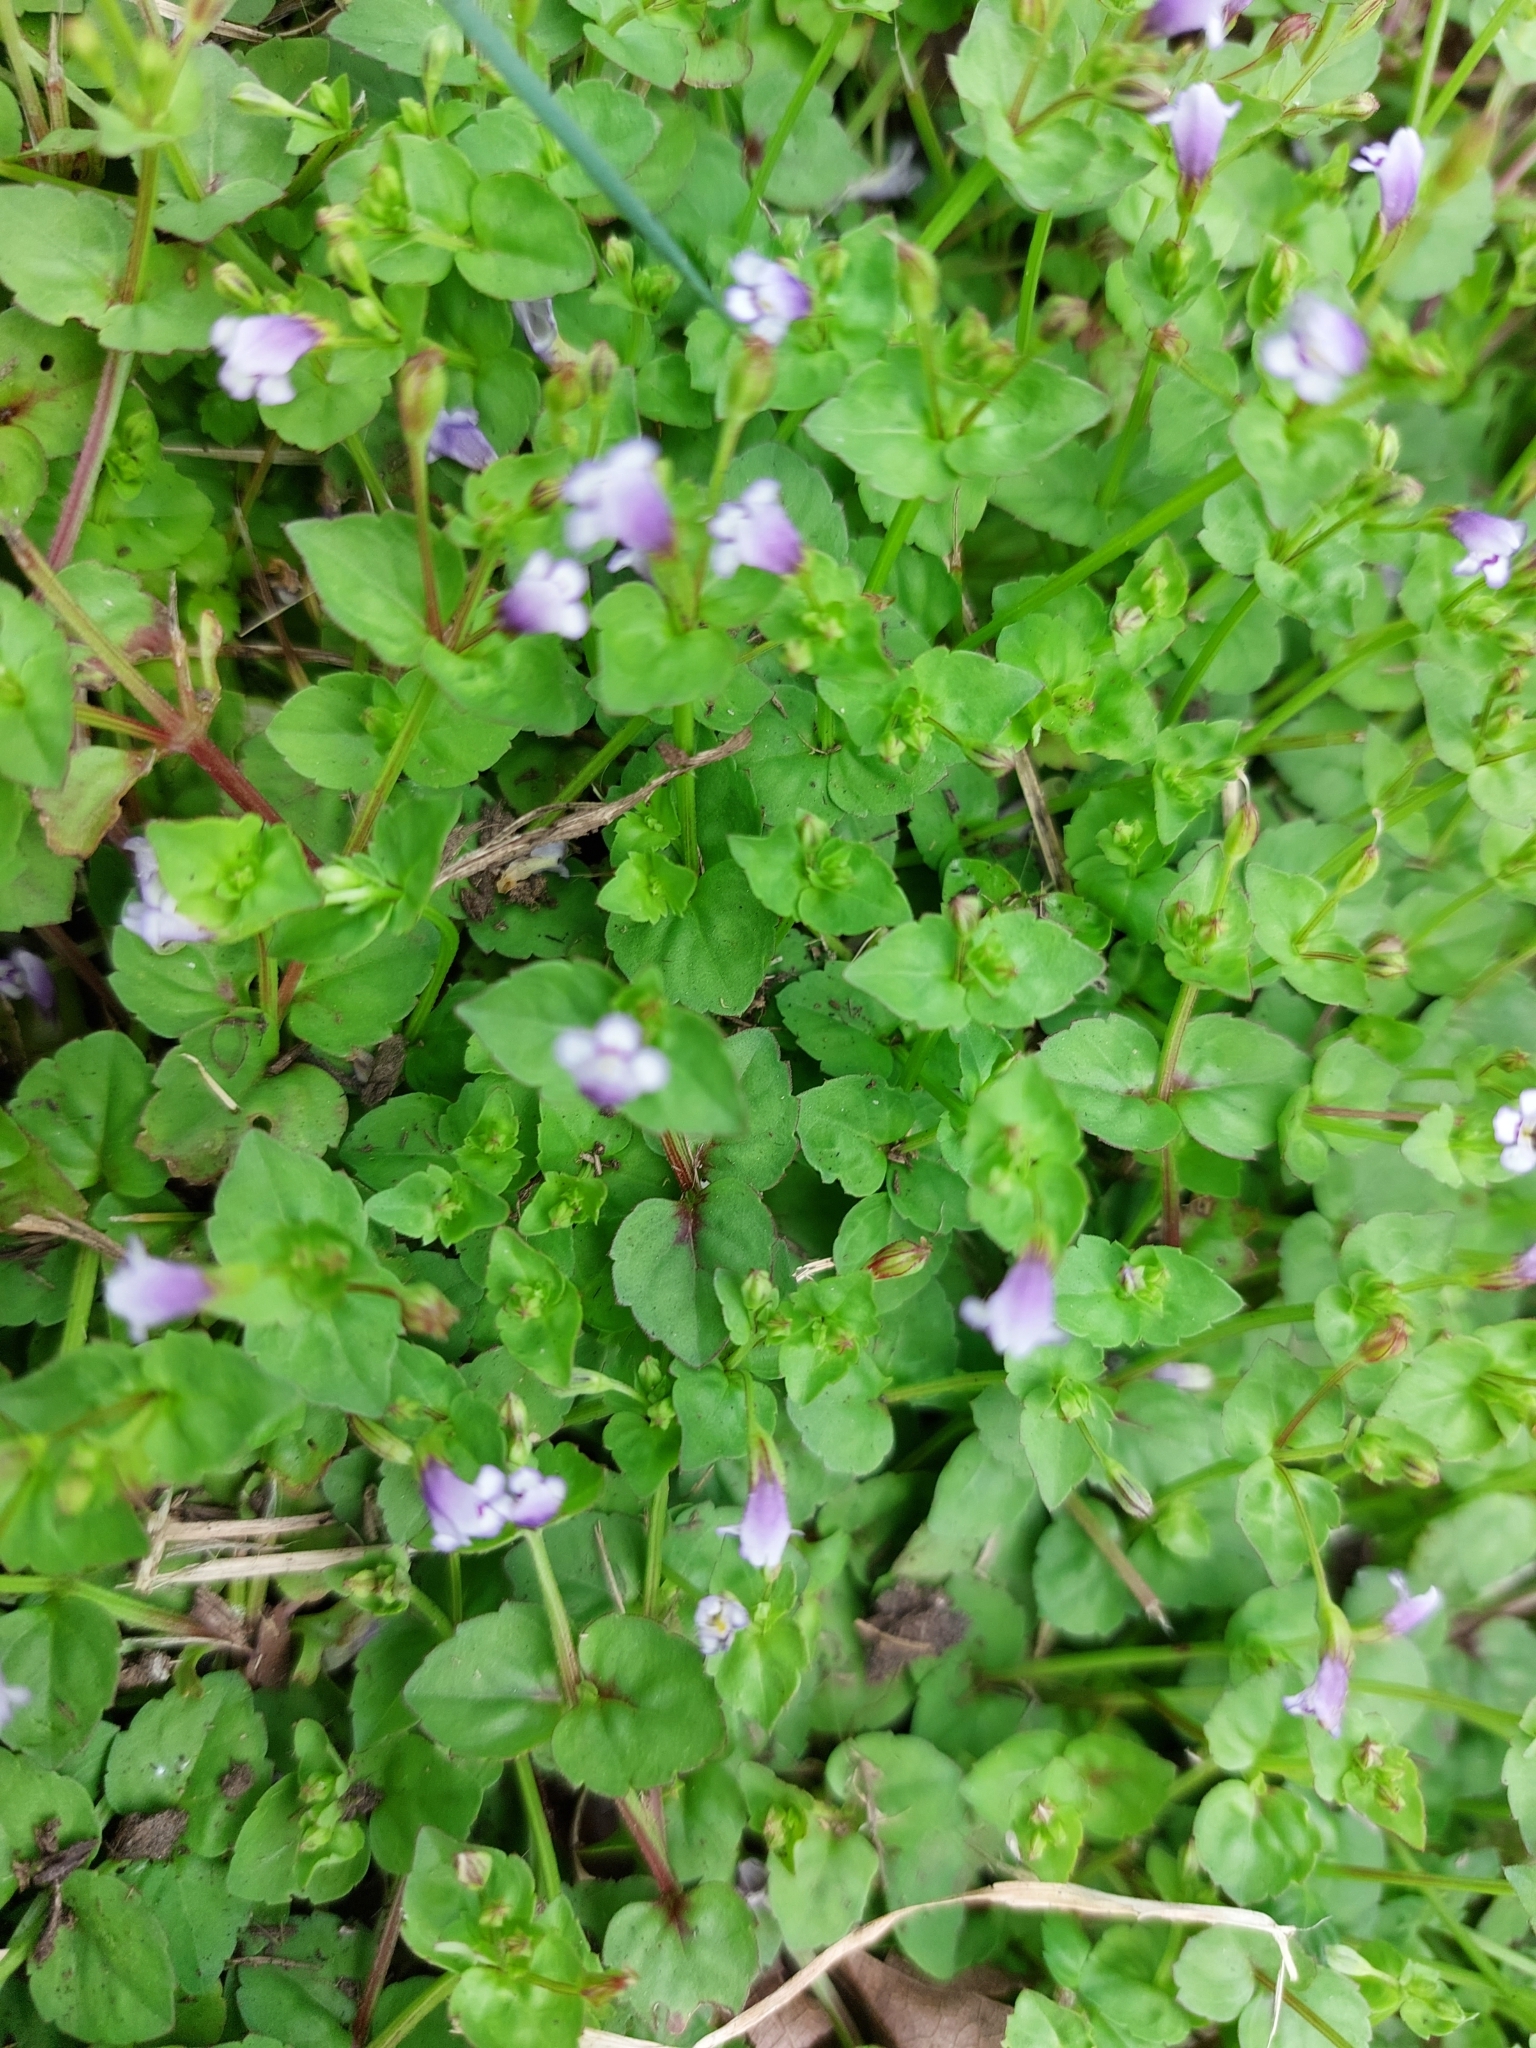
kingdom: Plantae
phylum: Tracheophyta
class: Magnoliopsida
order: Lamiales
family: Linderniaceae
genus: Torenia
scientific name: Torenia crustacea
